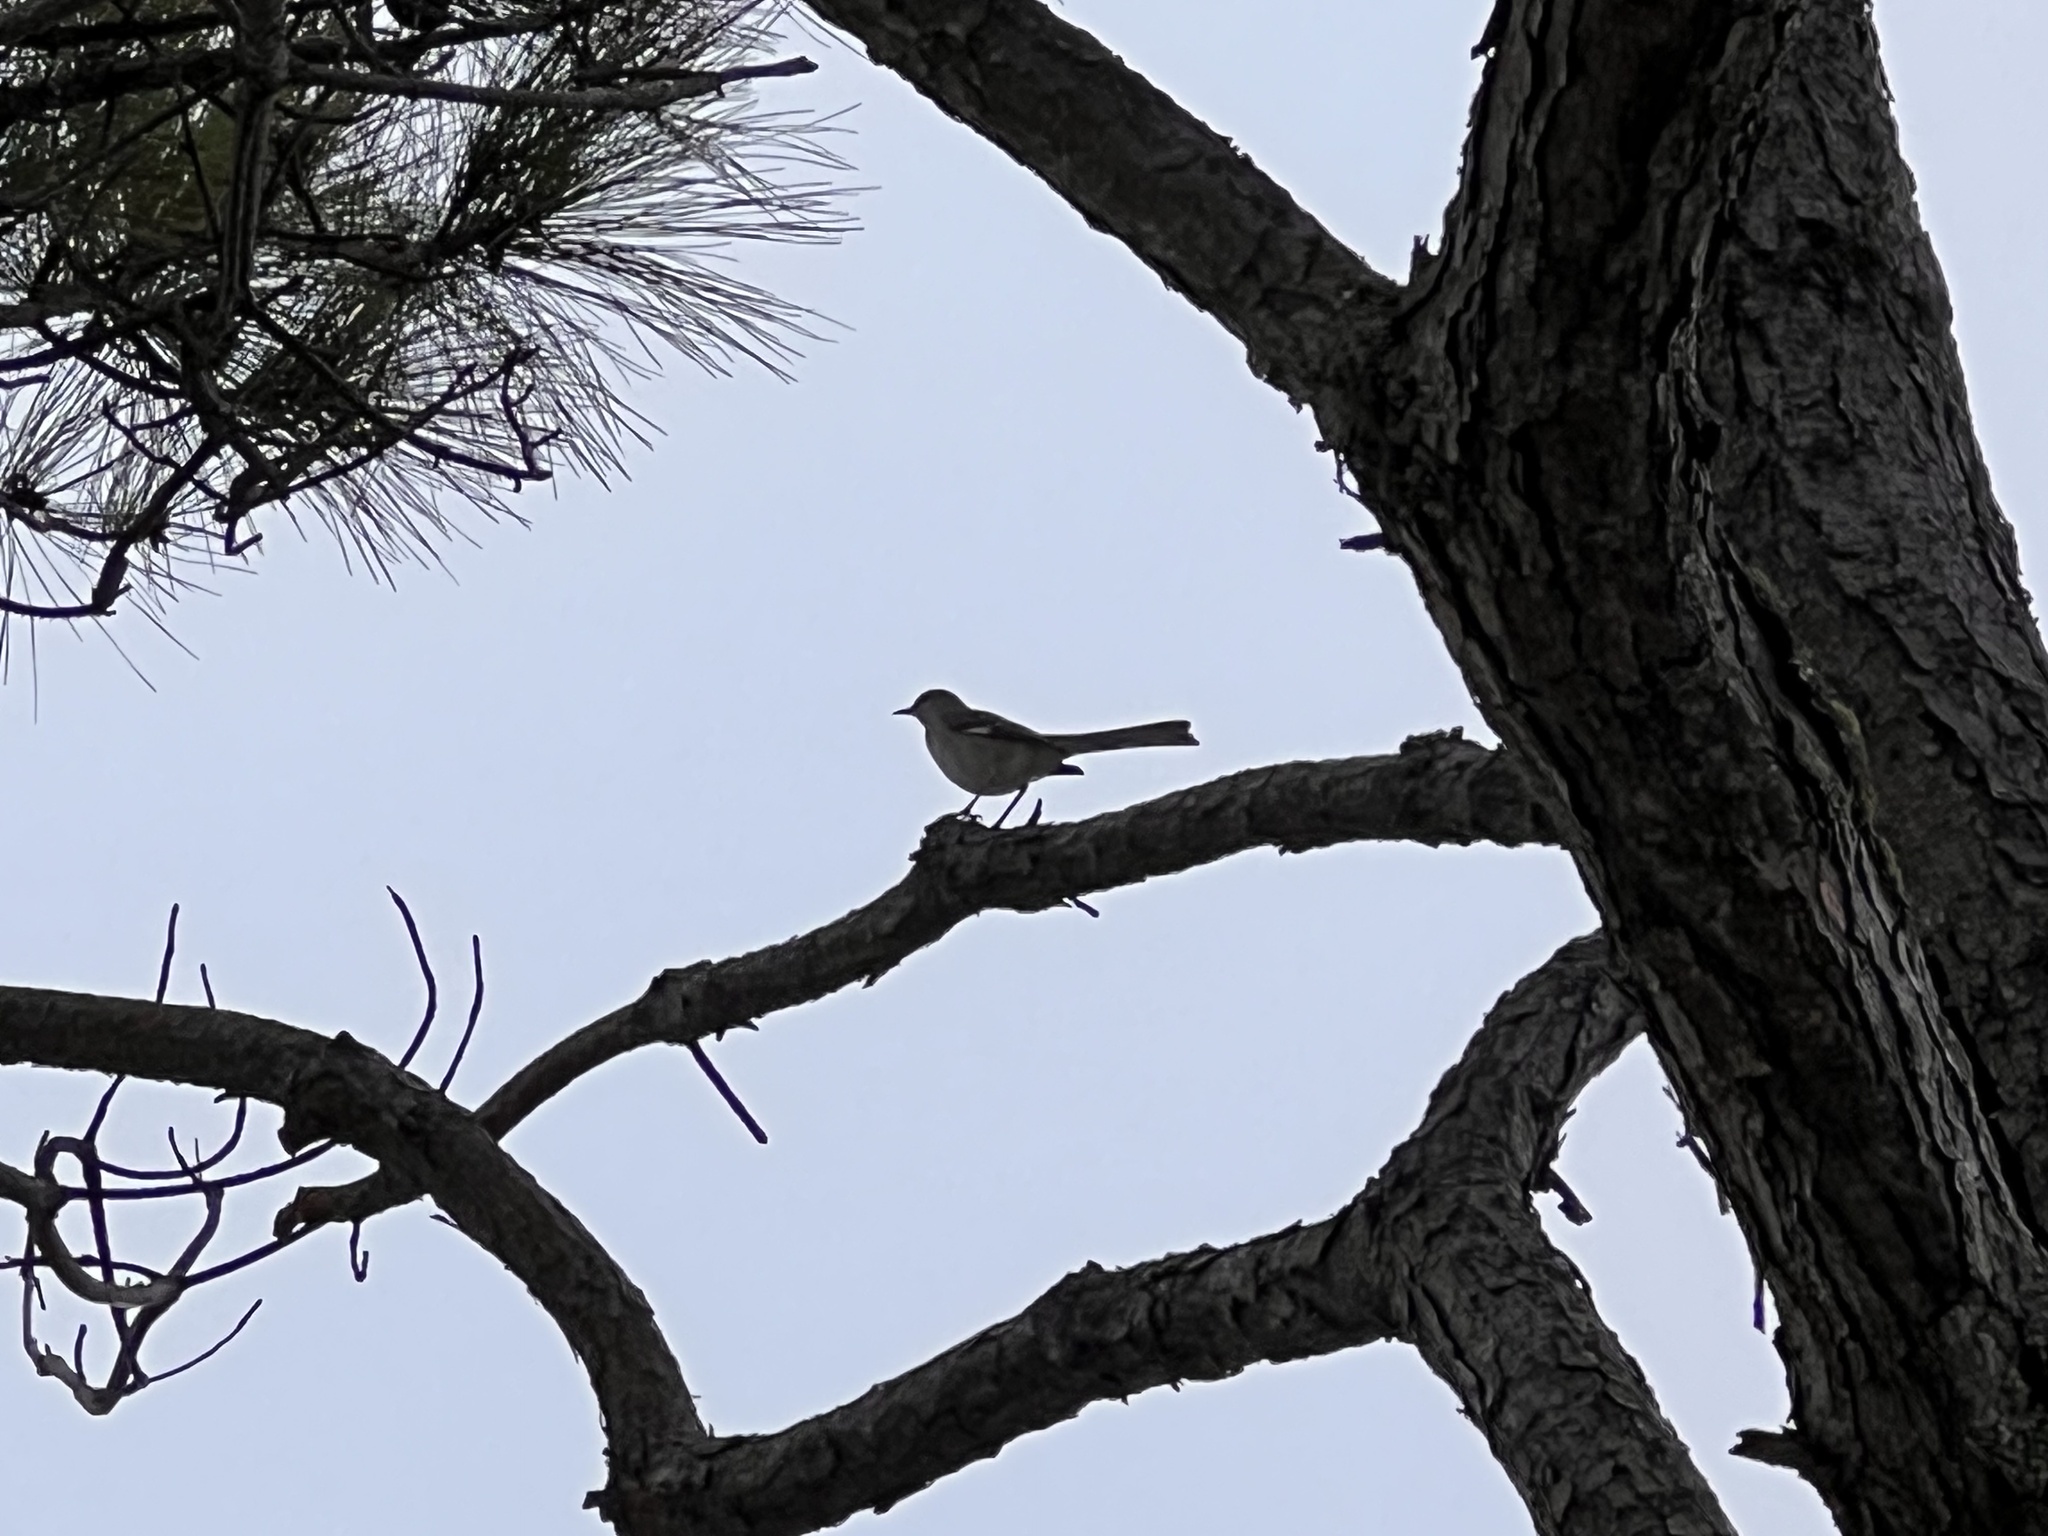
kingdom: Animalia
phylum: Chordata
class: Aves
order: Passeriformes
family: Mimidae
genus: Mimus
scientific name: Mimus polyglottos
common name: Northern mockingbird
